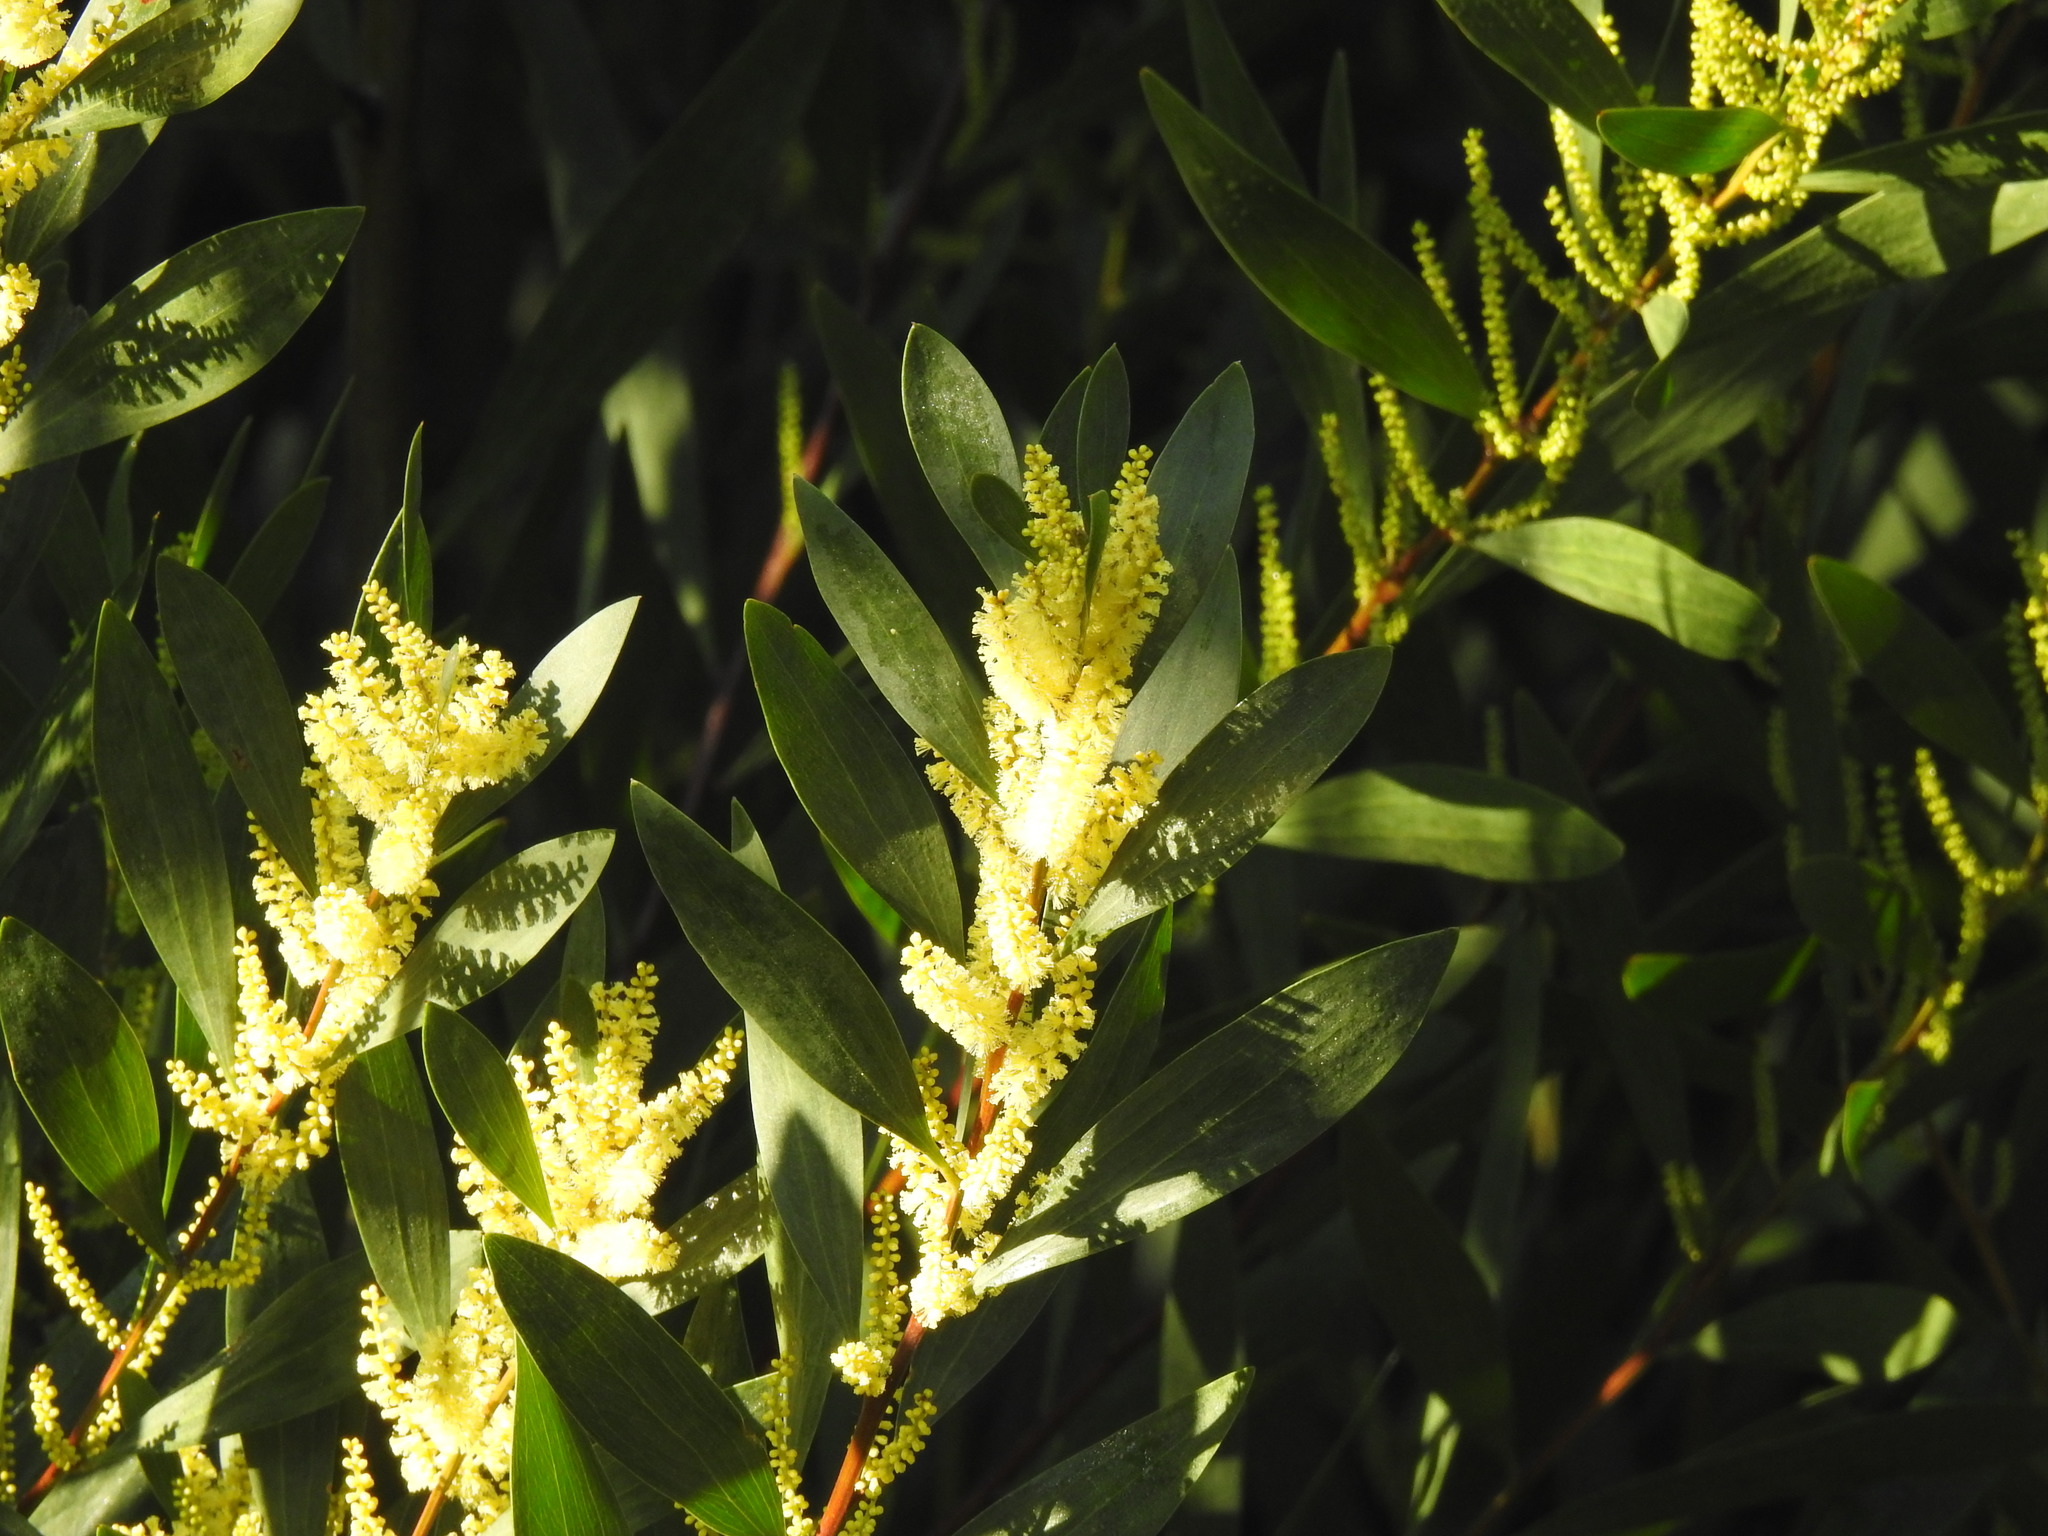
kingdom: Plantae
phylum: Tracheophyta
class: Magnoliopsida
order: Fabales
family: Fabaceae
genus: Acacia
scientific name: Acacia longifolia
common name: Sydney golden wattle
